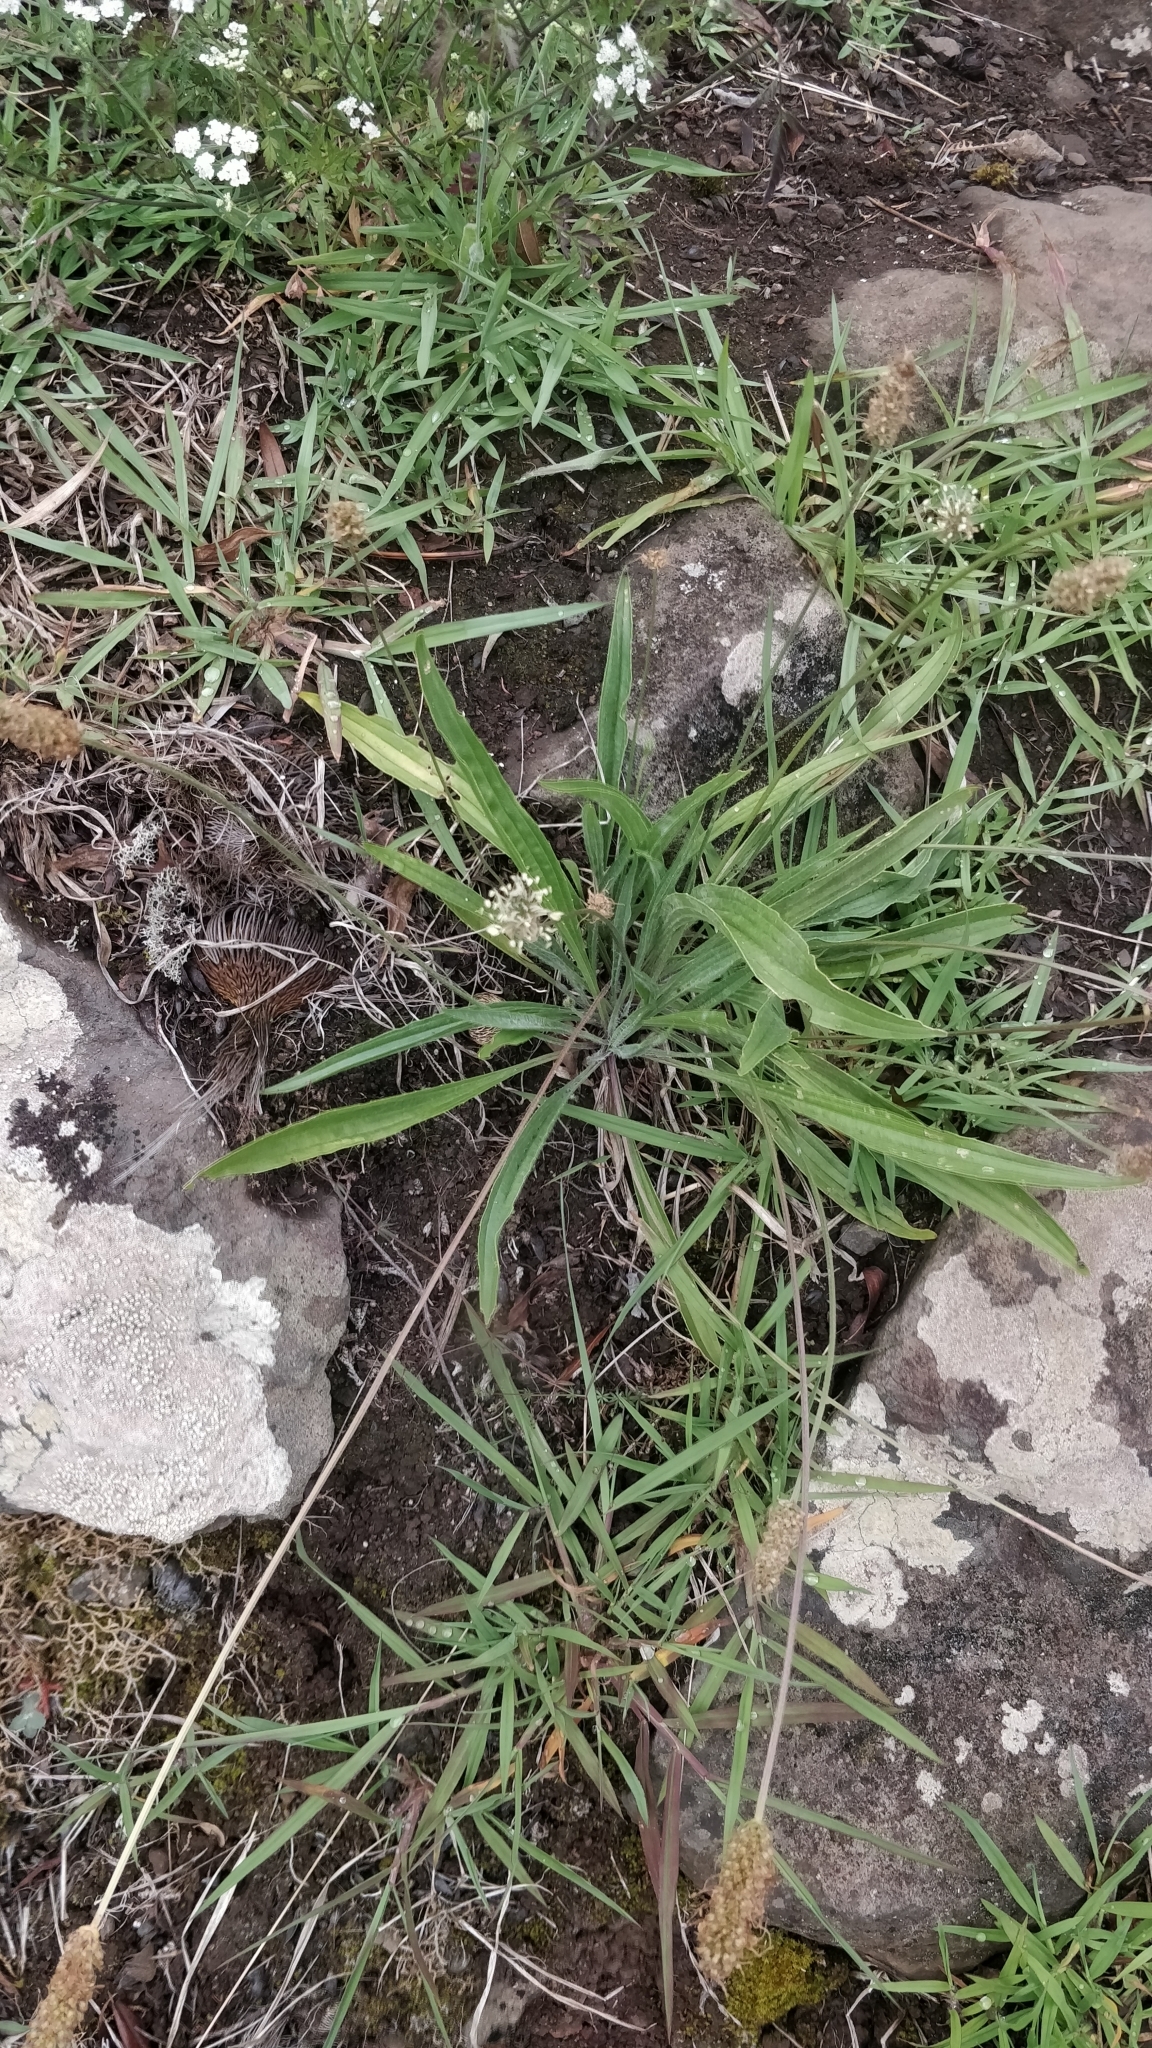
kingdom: Plantae
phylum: Tracheophyta
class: Magnoliopsida
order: Lamiales
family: Plantaginaceae
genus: Plantago
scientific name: Plantago lanceolata
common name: Ribwort plantain
